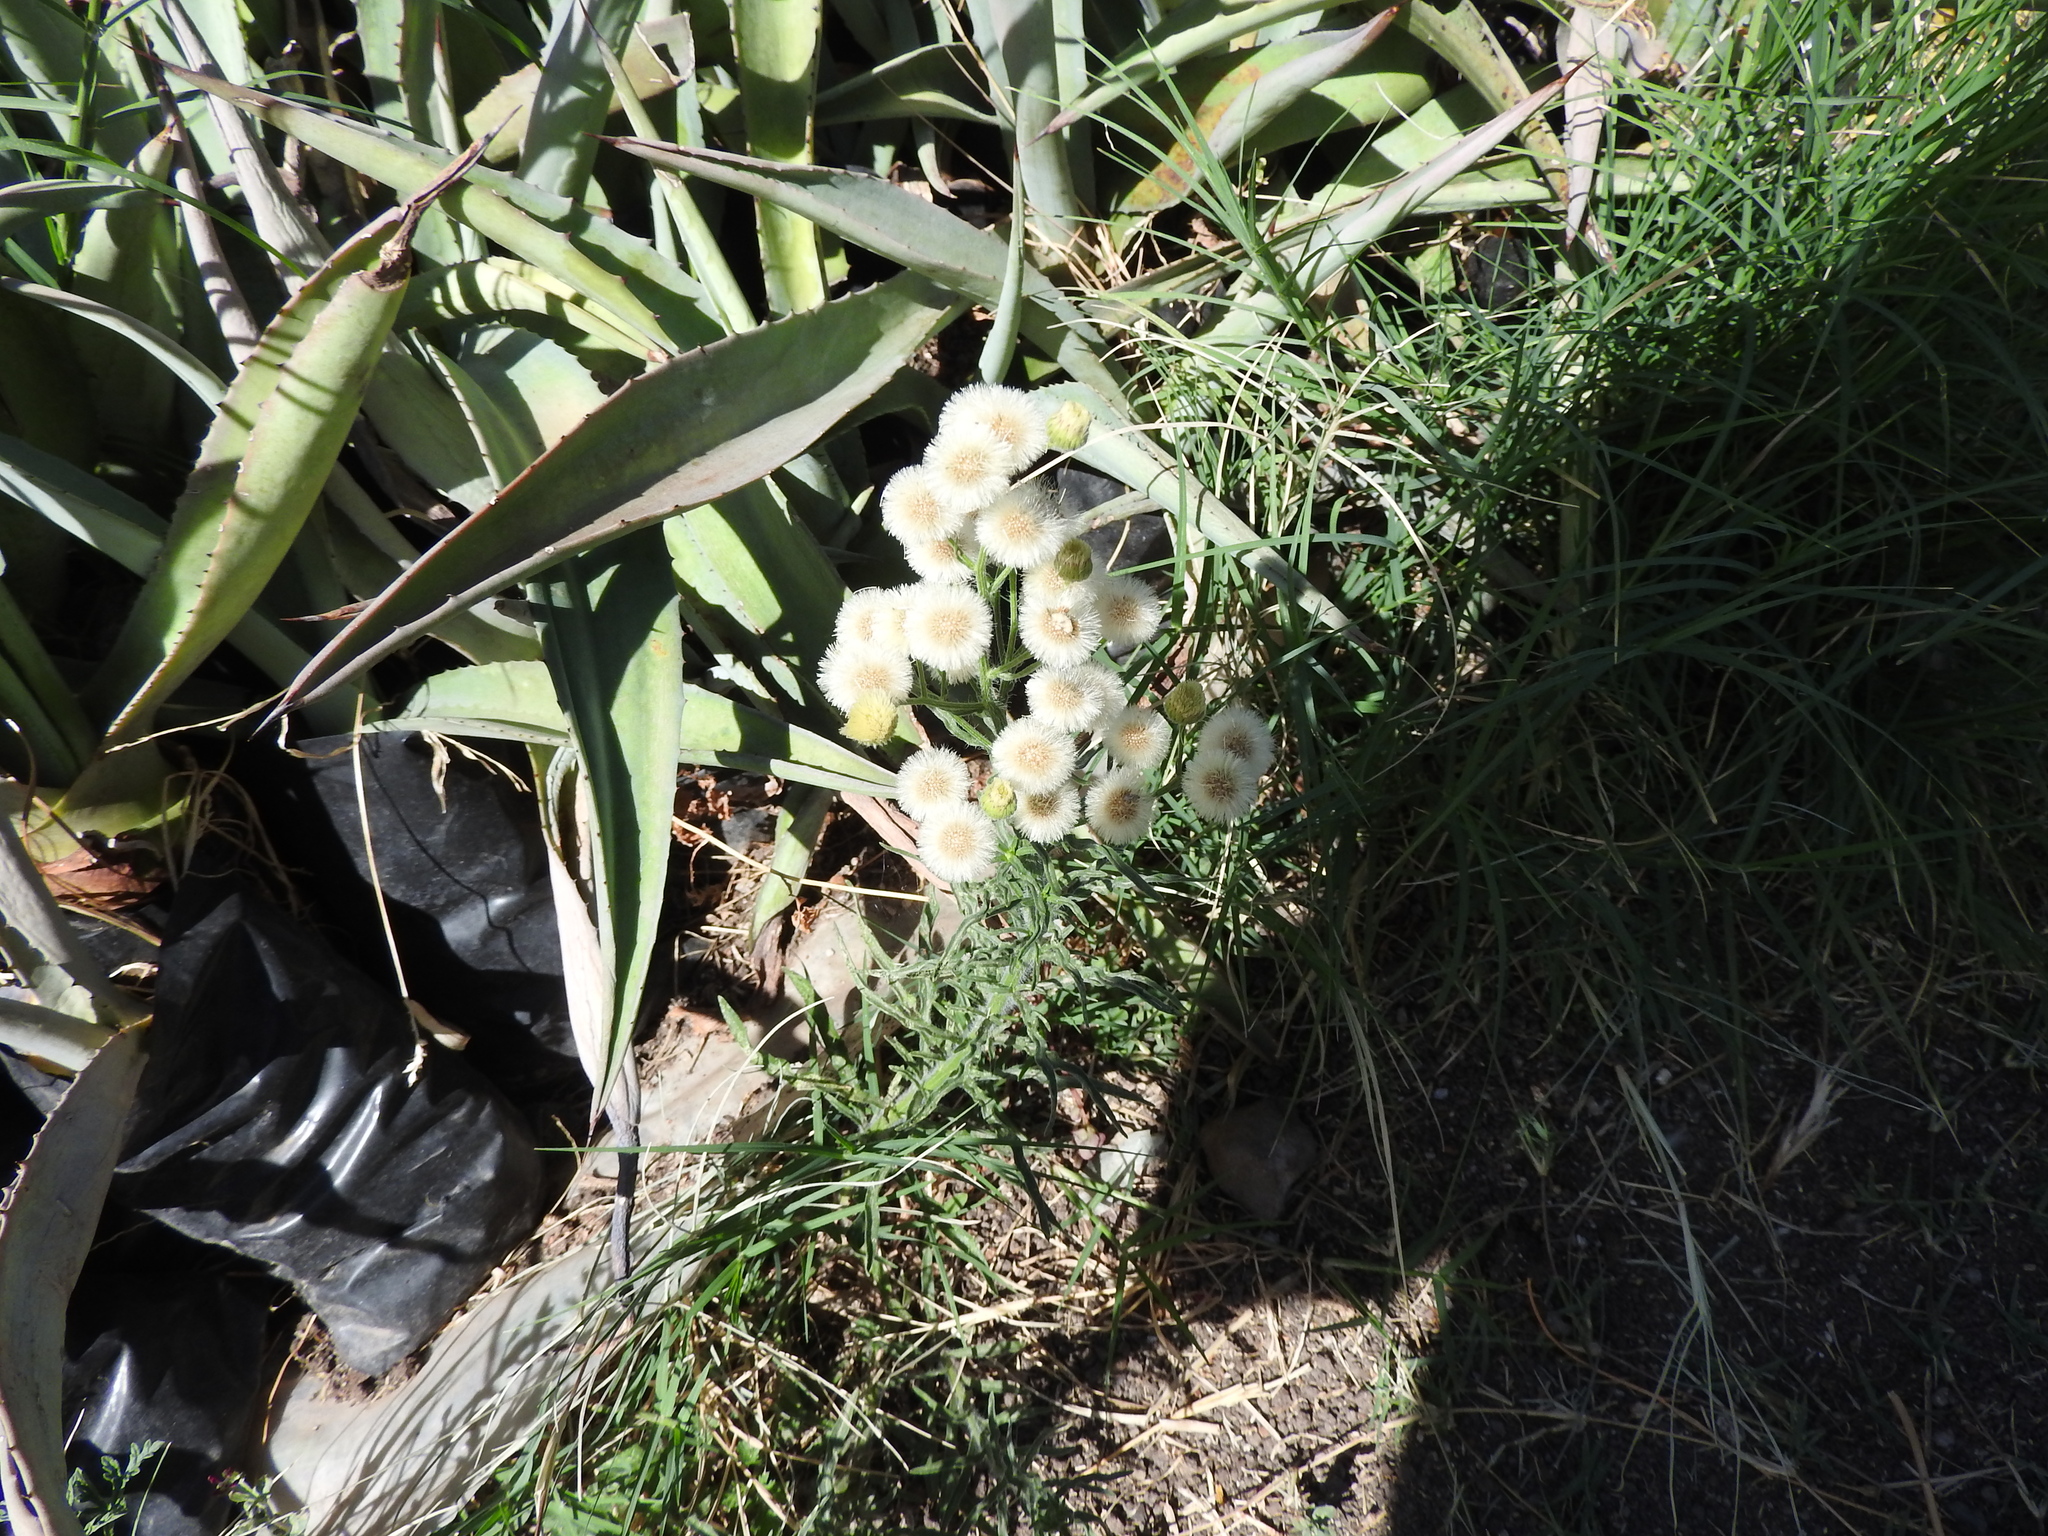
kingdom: Plantae
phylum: Tracheophyta
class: Magnoliopsida
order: Asterales
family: Asteraceae
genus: Erigeron
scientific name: Erigeron bonariensis
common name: Argentine fleabane
